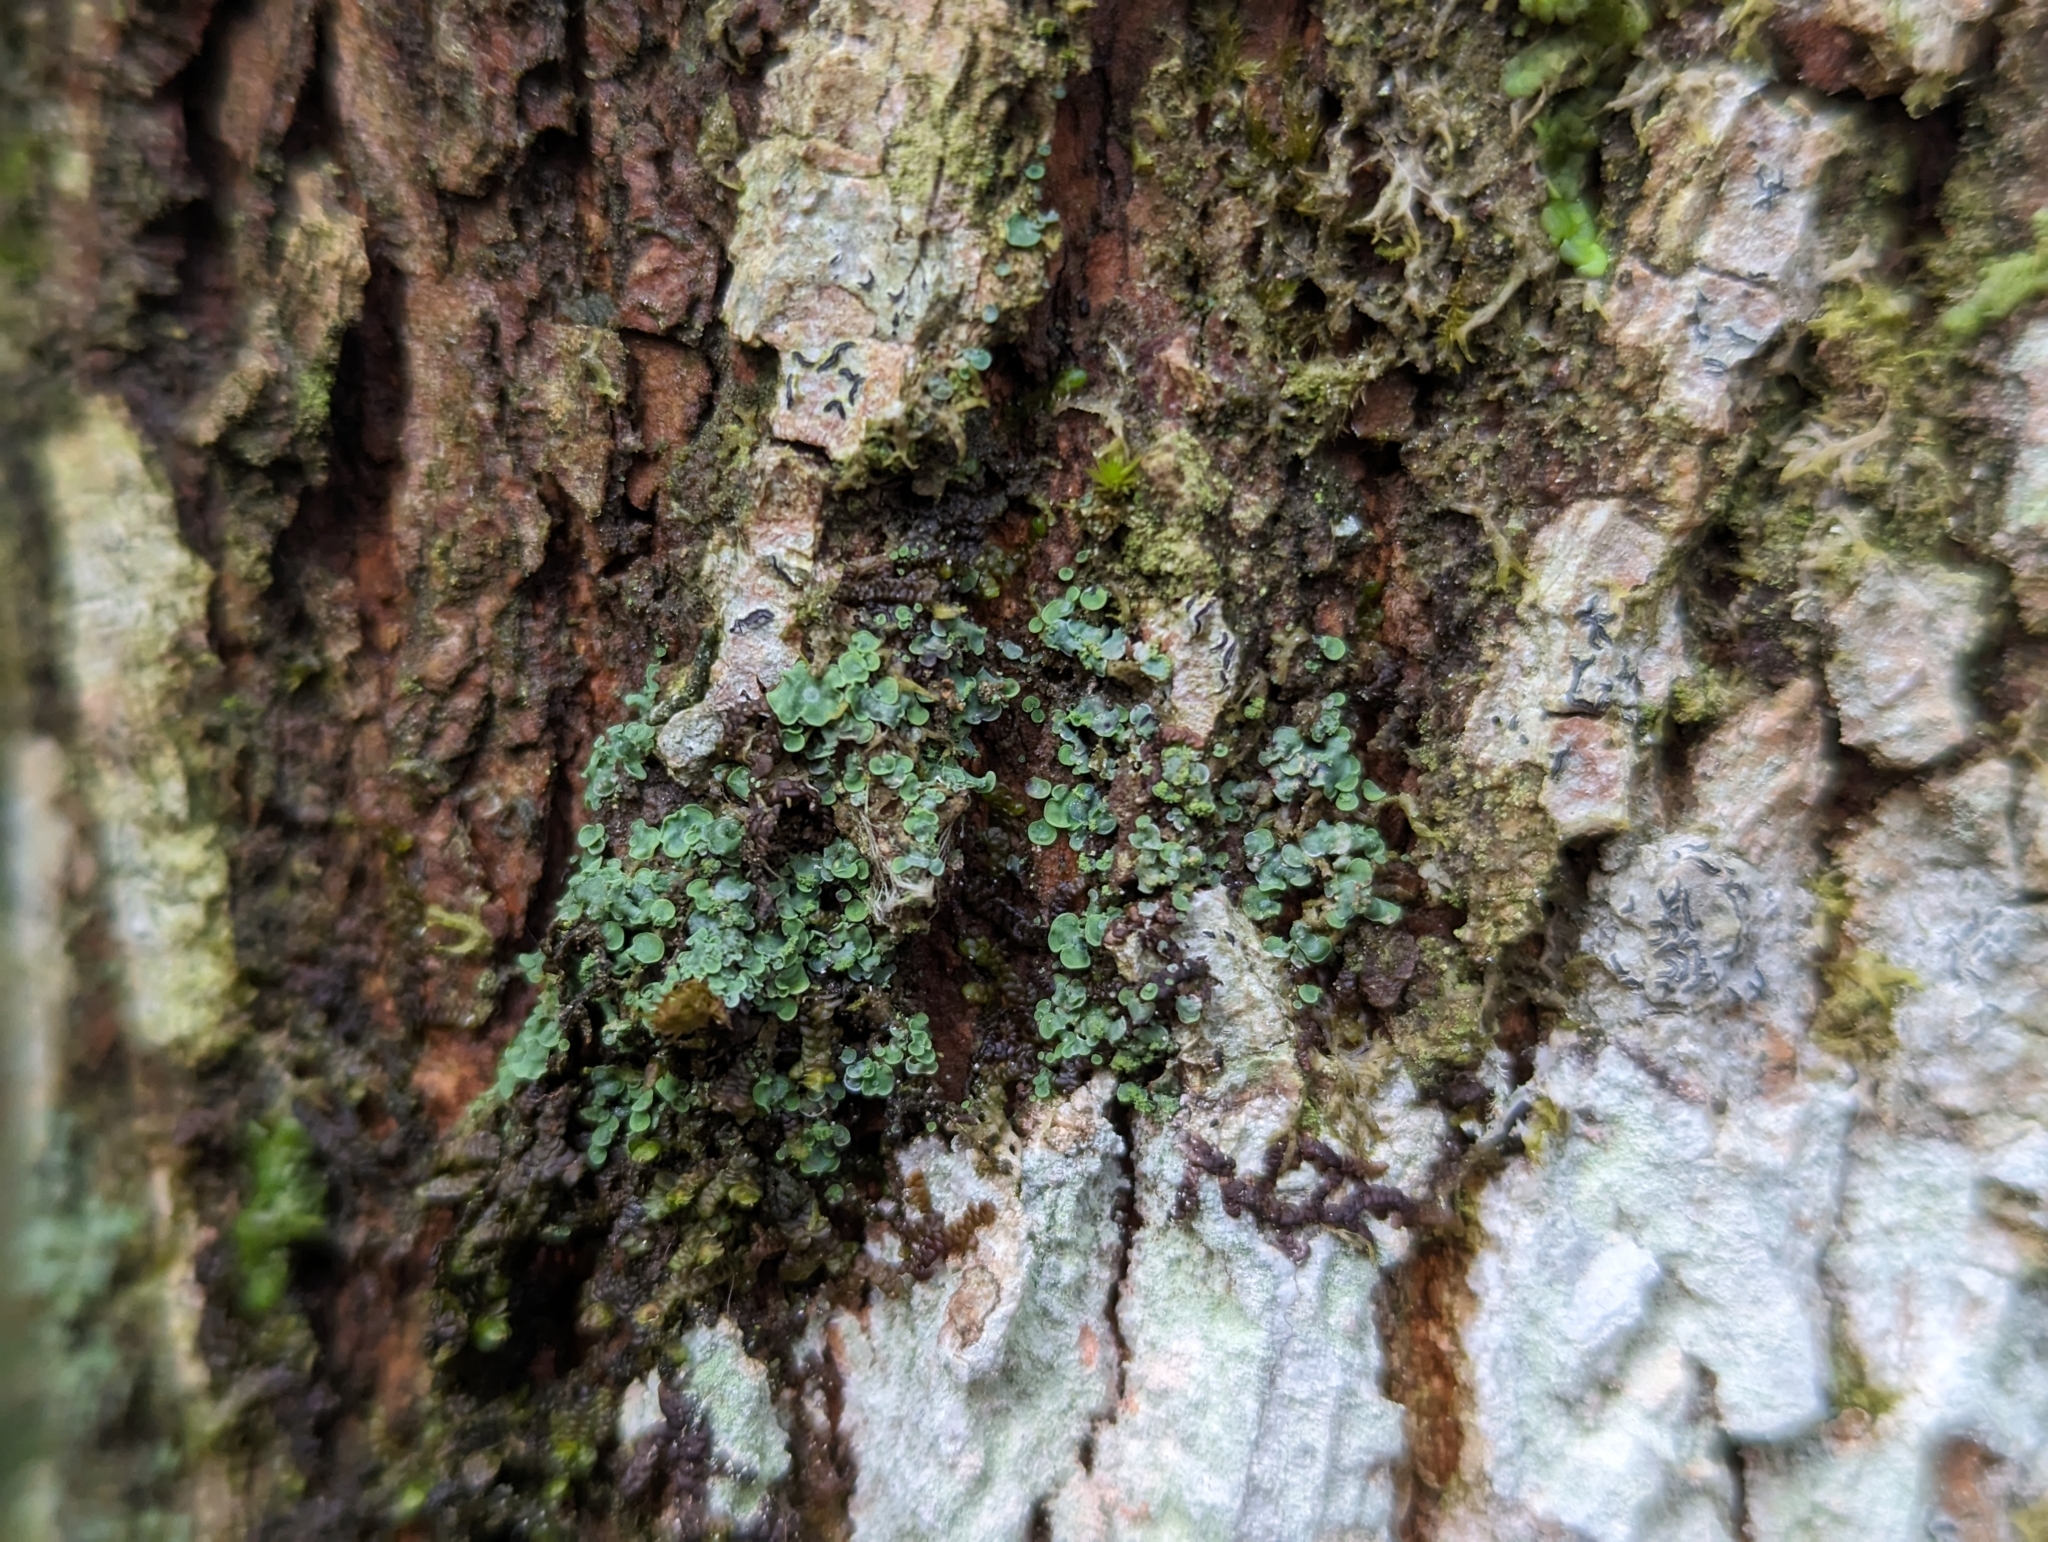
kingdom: Fungi
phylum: Ascomycota
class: Eurotiomycetes
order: Verrucariales
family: Verrucariaceae
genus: Normandina
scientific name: Normandina pulchella
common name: Elf ears lichen
